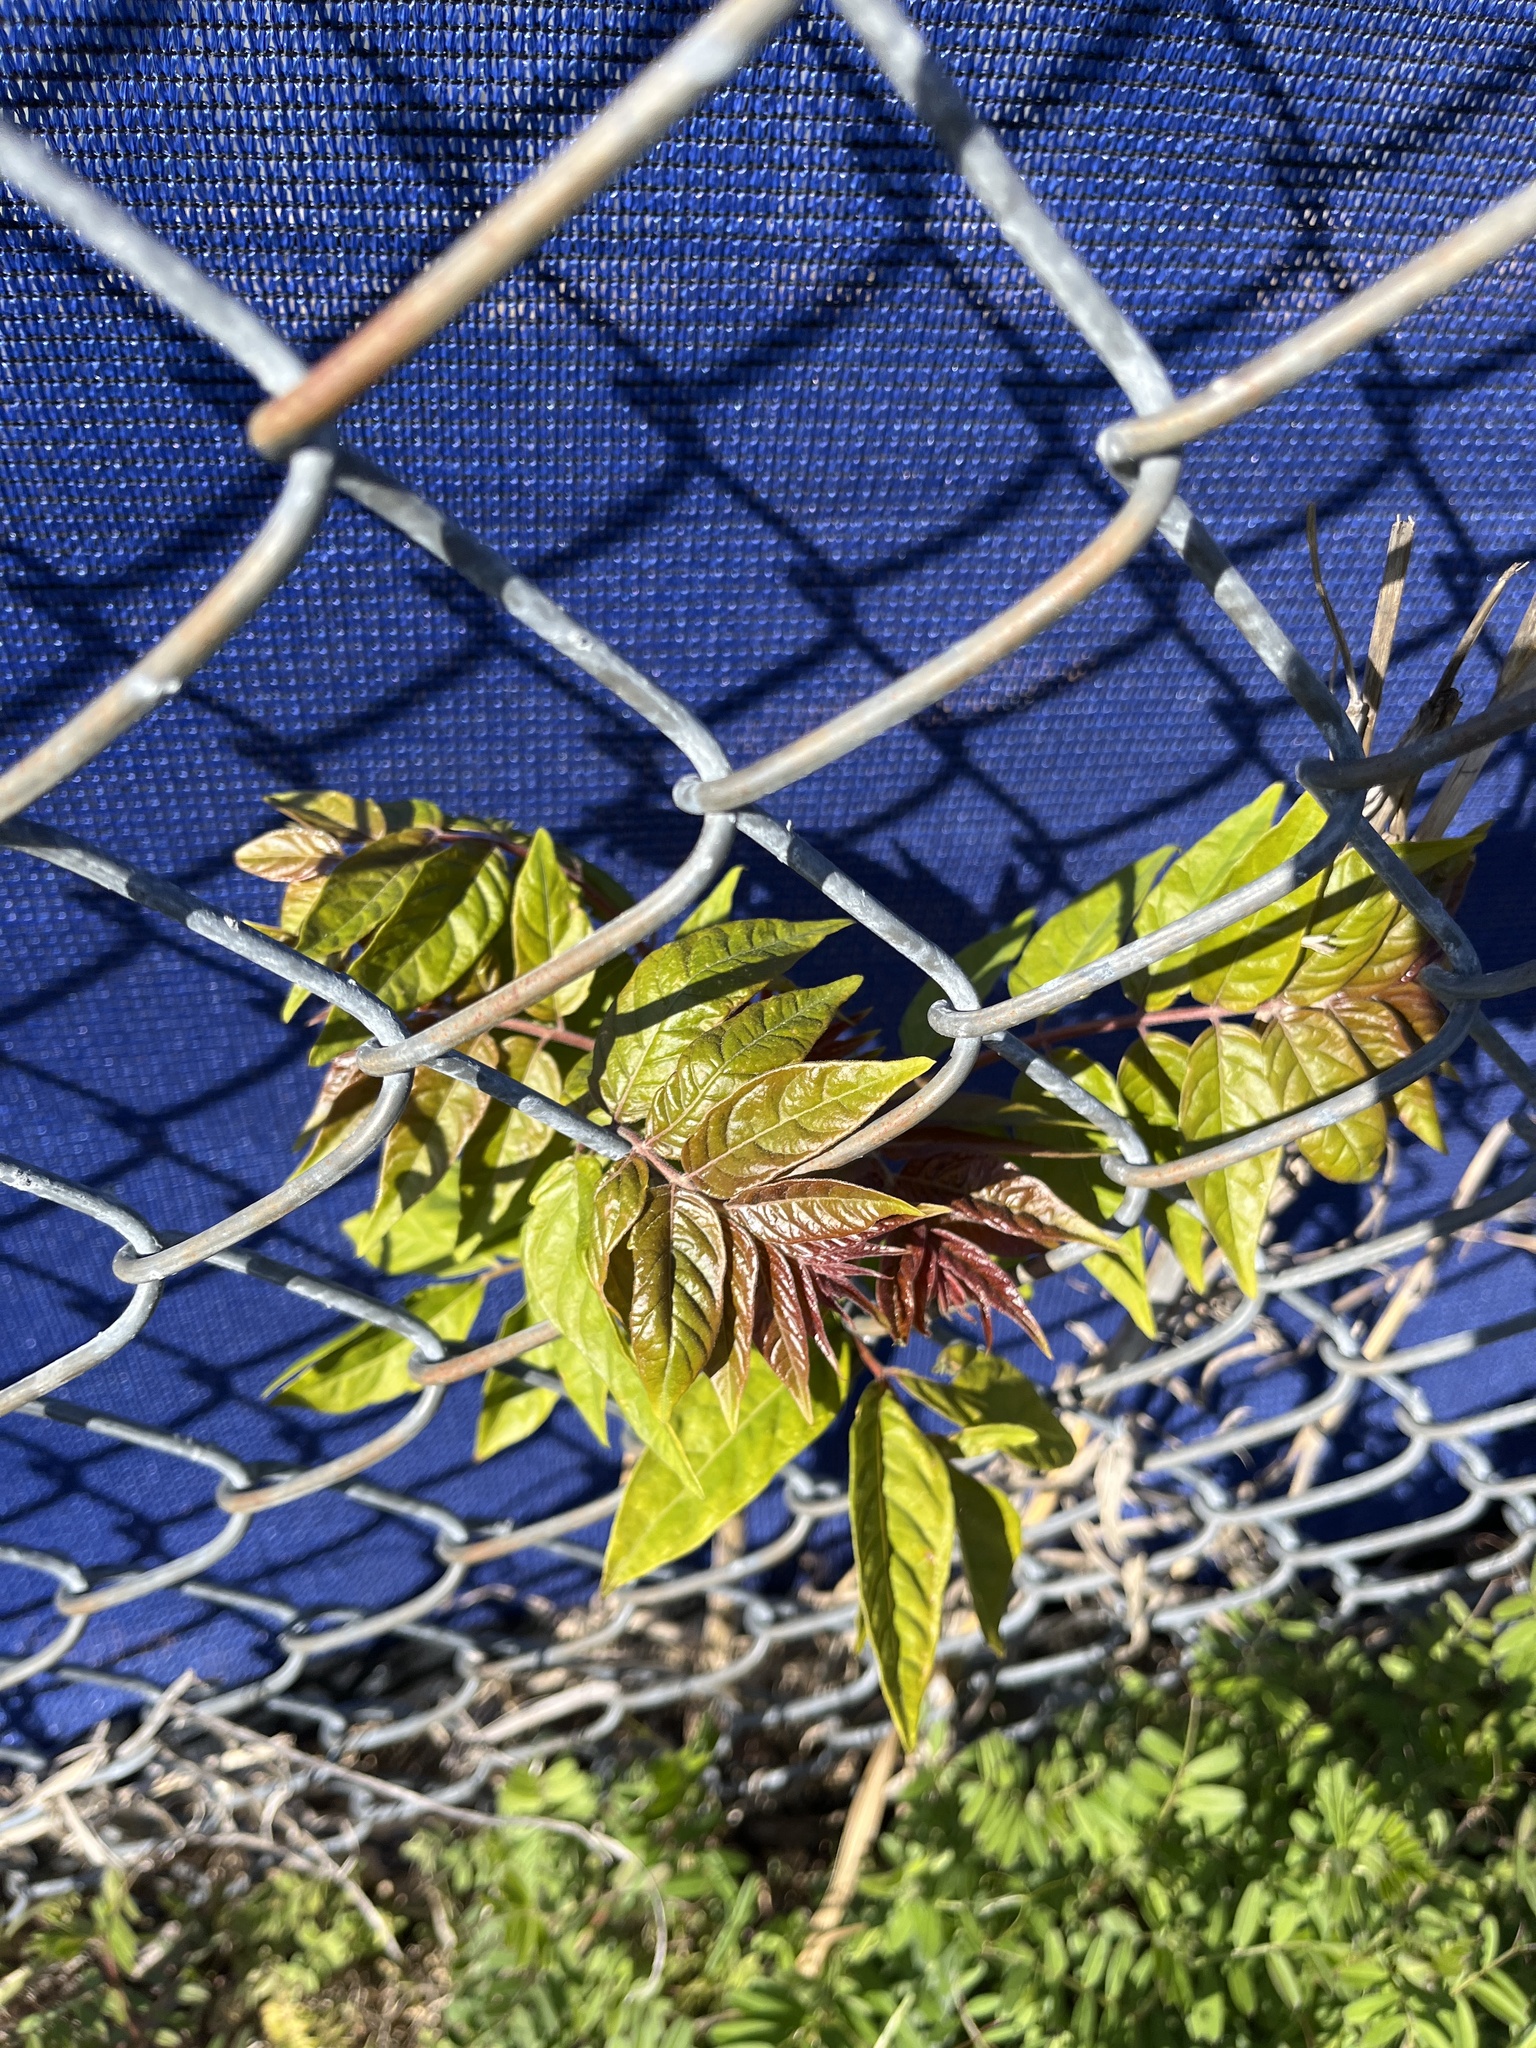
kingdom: Plantae
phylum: Tracheophyta
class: Magnoliopsida
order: Sapindales
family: Simaroubaceae
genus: Ailanthus
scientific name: Ailanthus altissima
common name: Tree-of-heaven
